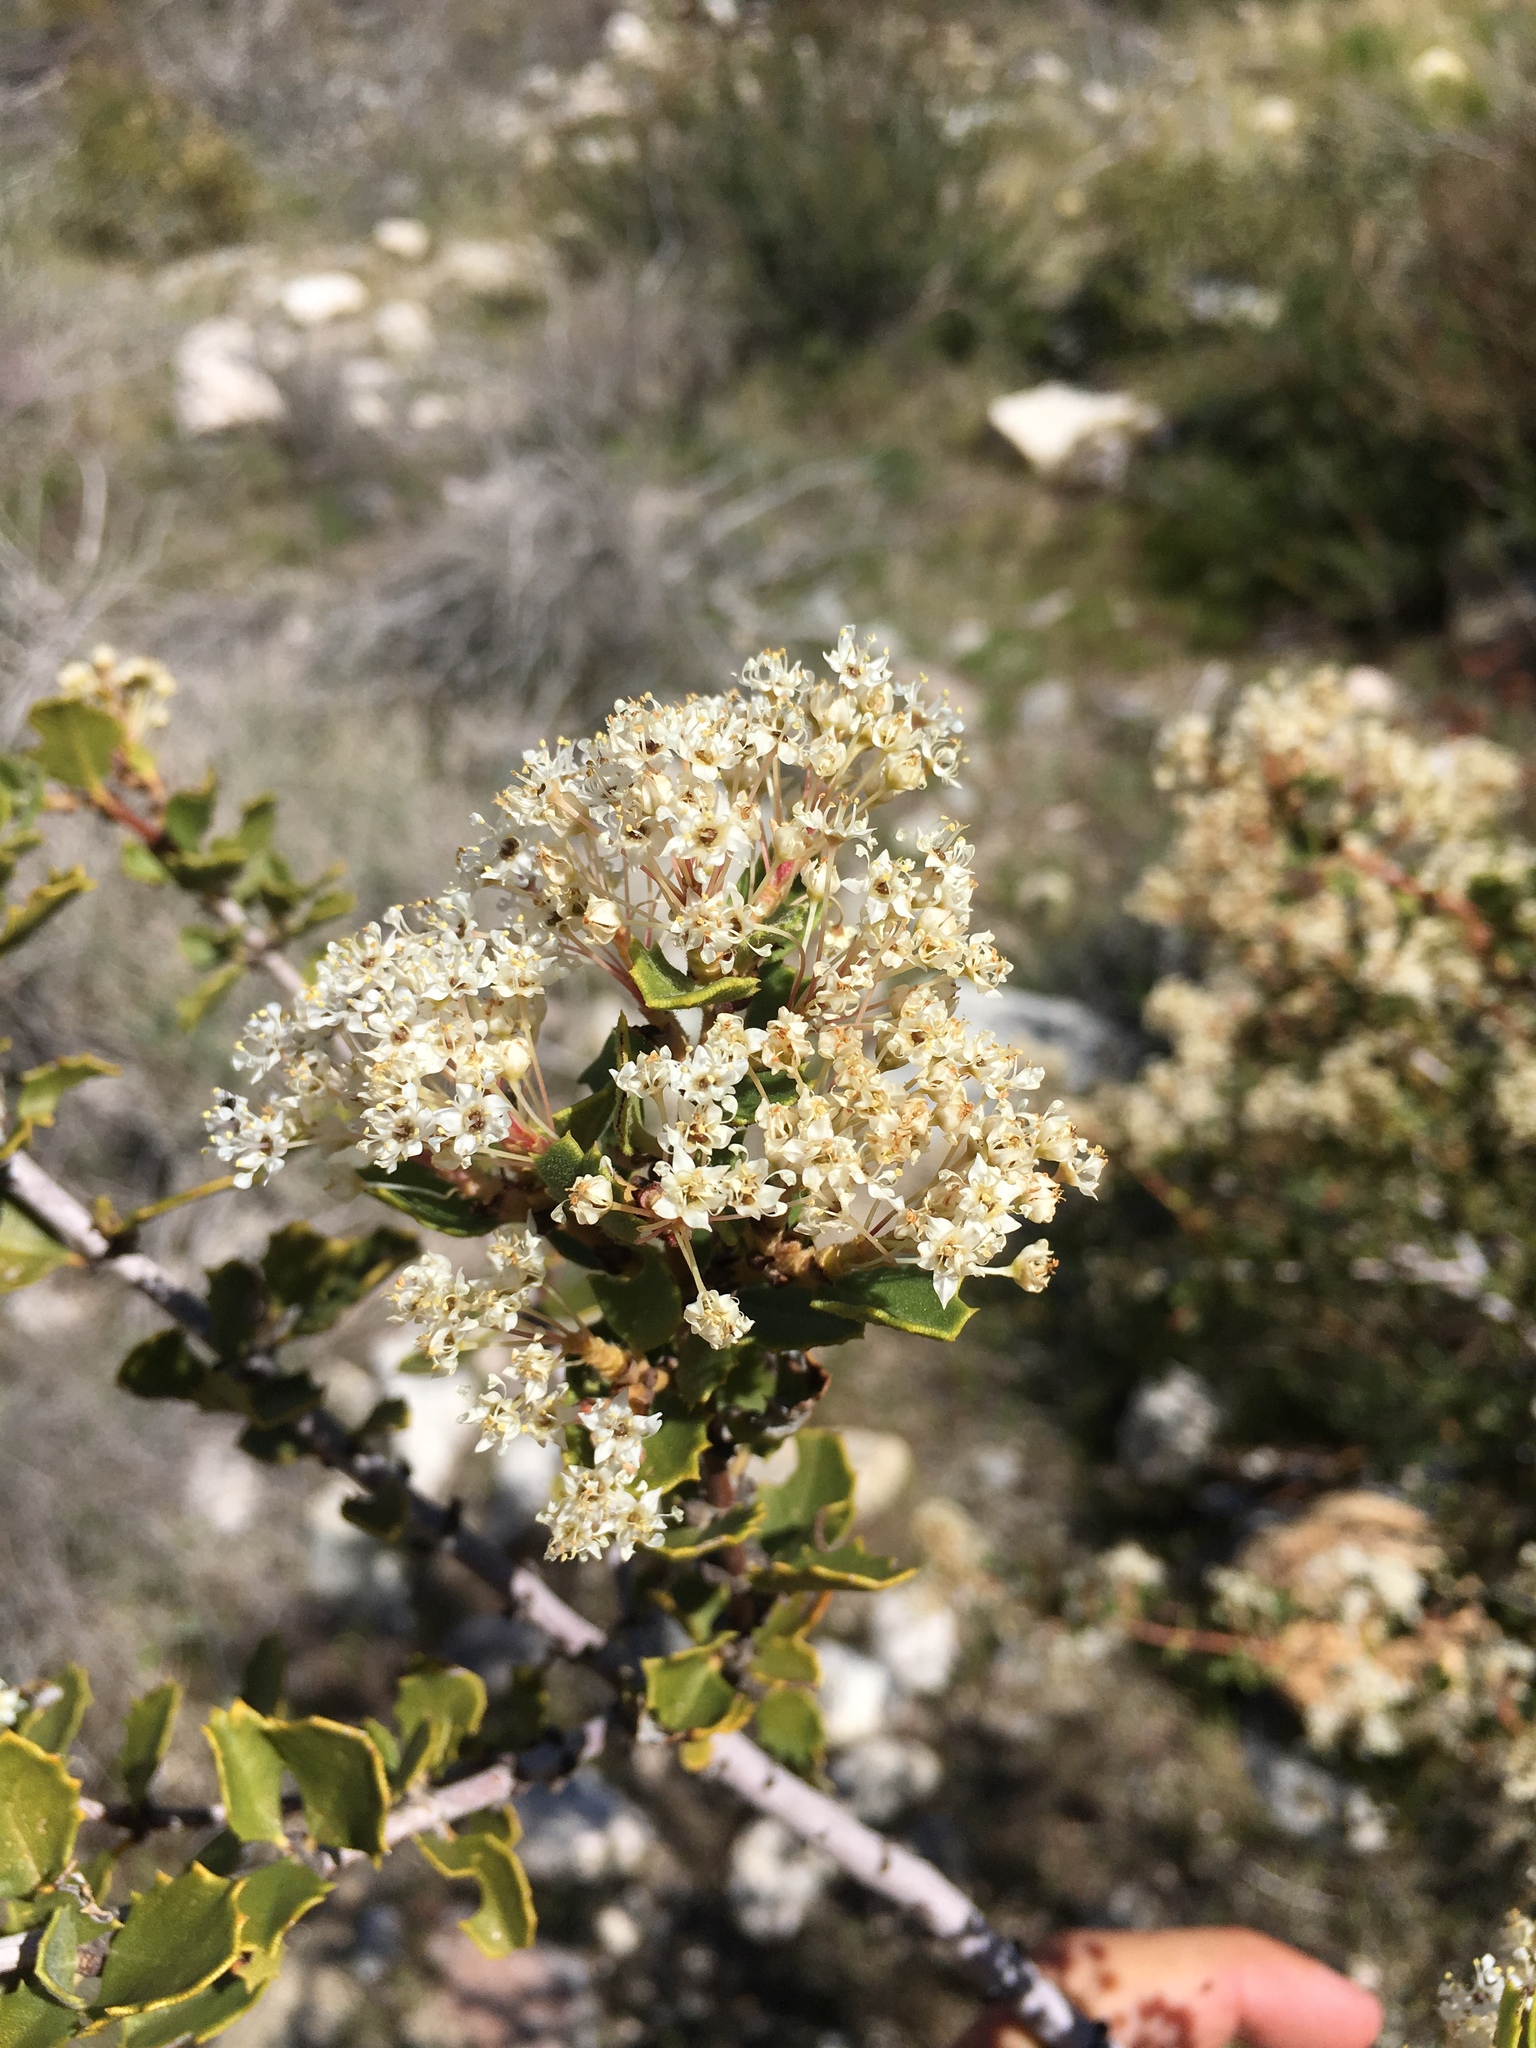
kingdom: Plantae
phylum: Tracheophyta
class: Magnoliopsida
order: Rosales
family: Rhamnaceae
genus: Ceanothus
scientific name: Ceanothus perplexans
